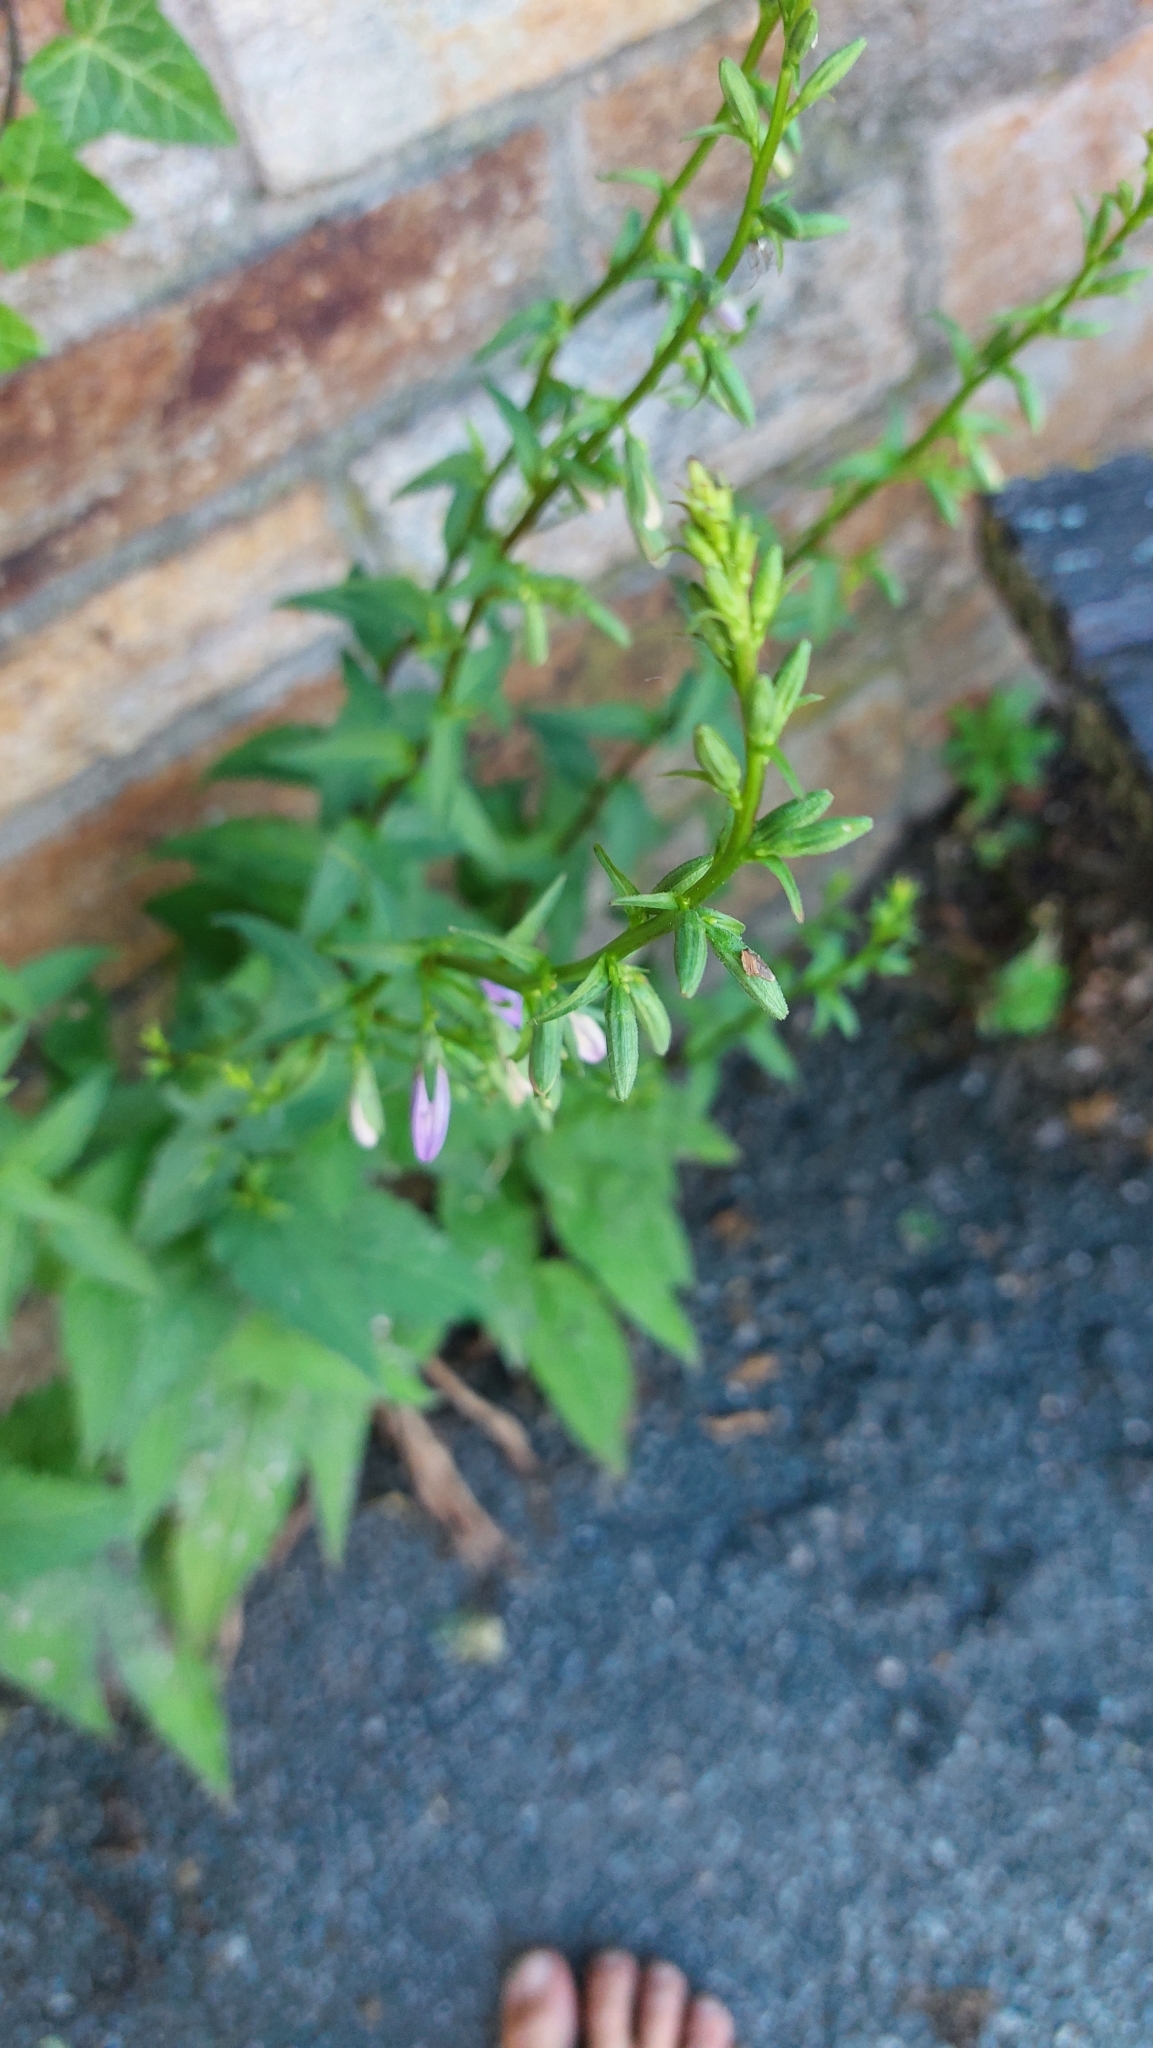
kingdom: Plantae
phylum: Tracheophyta
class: Magnoliopsida
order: Asterales
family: Campanulaceae
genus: Campanula
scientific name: Campanula rapunculoides
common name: Creeping bellflower
